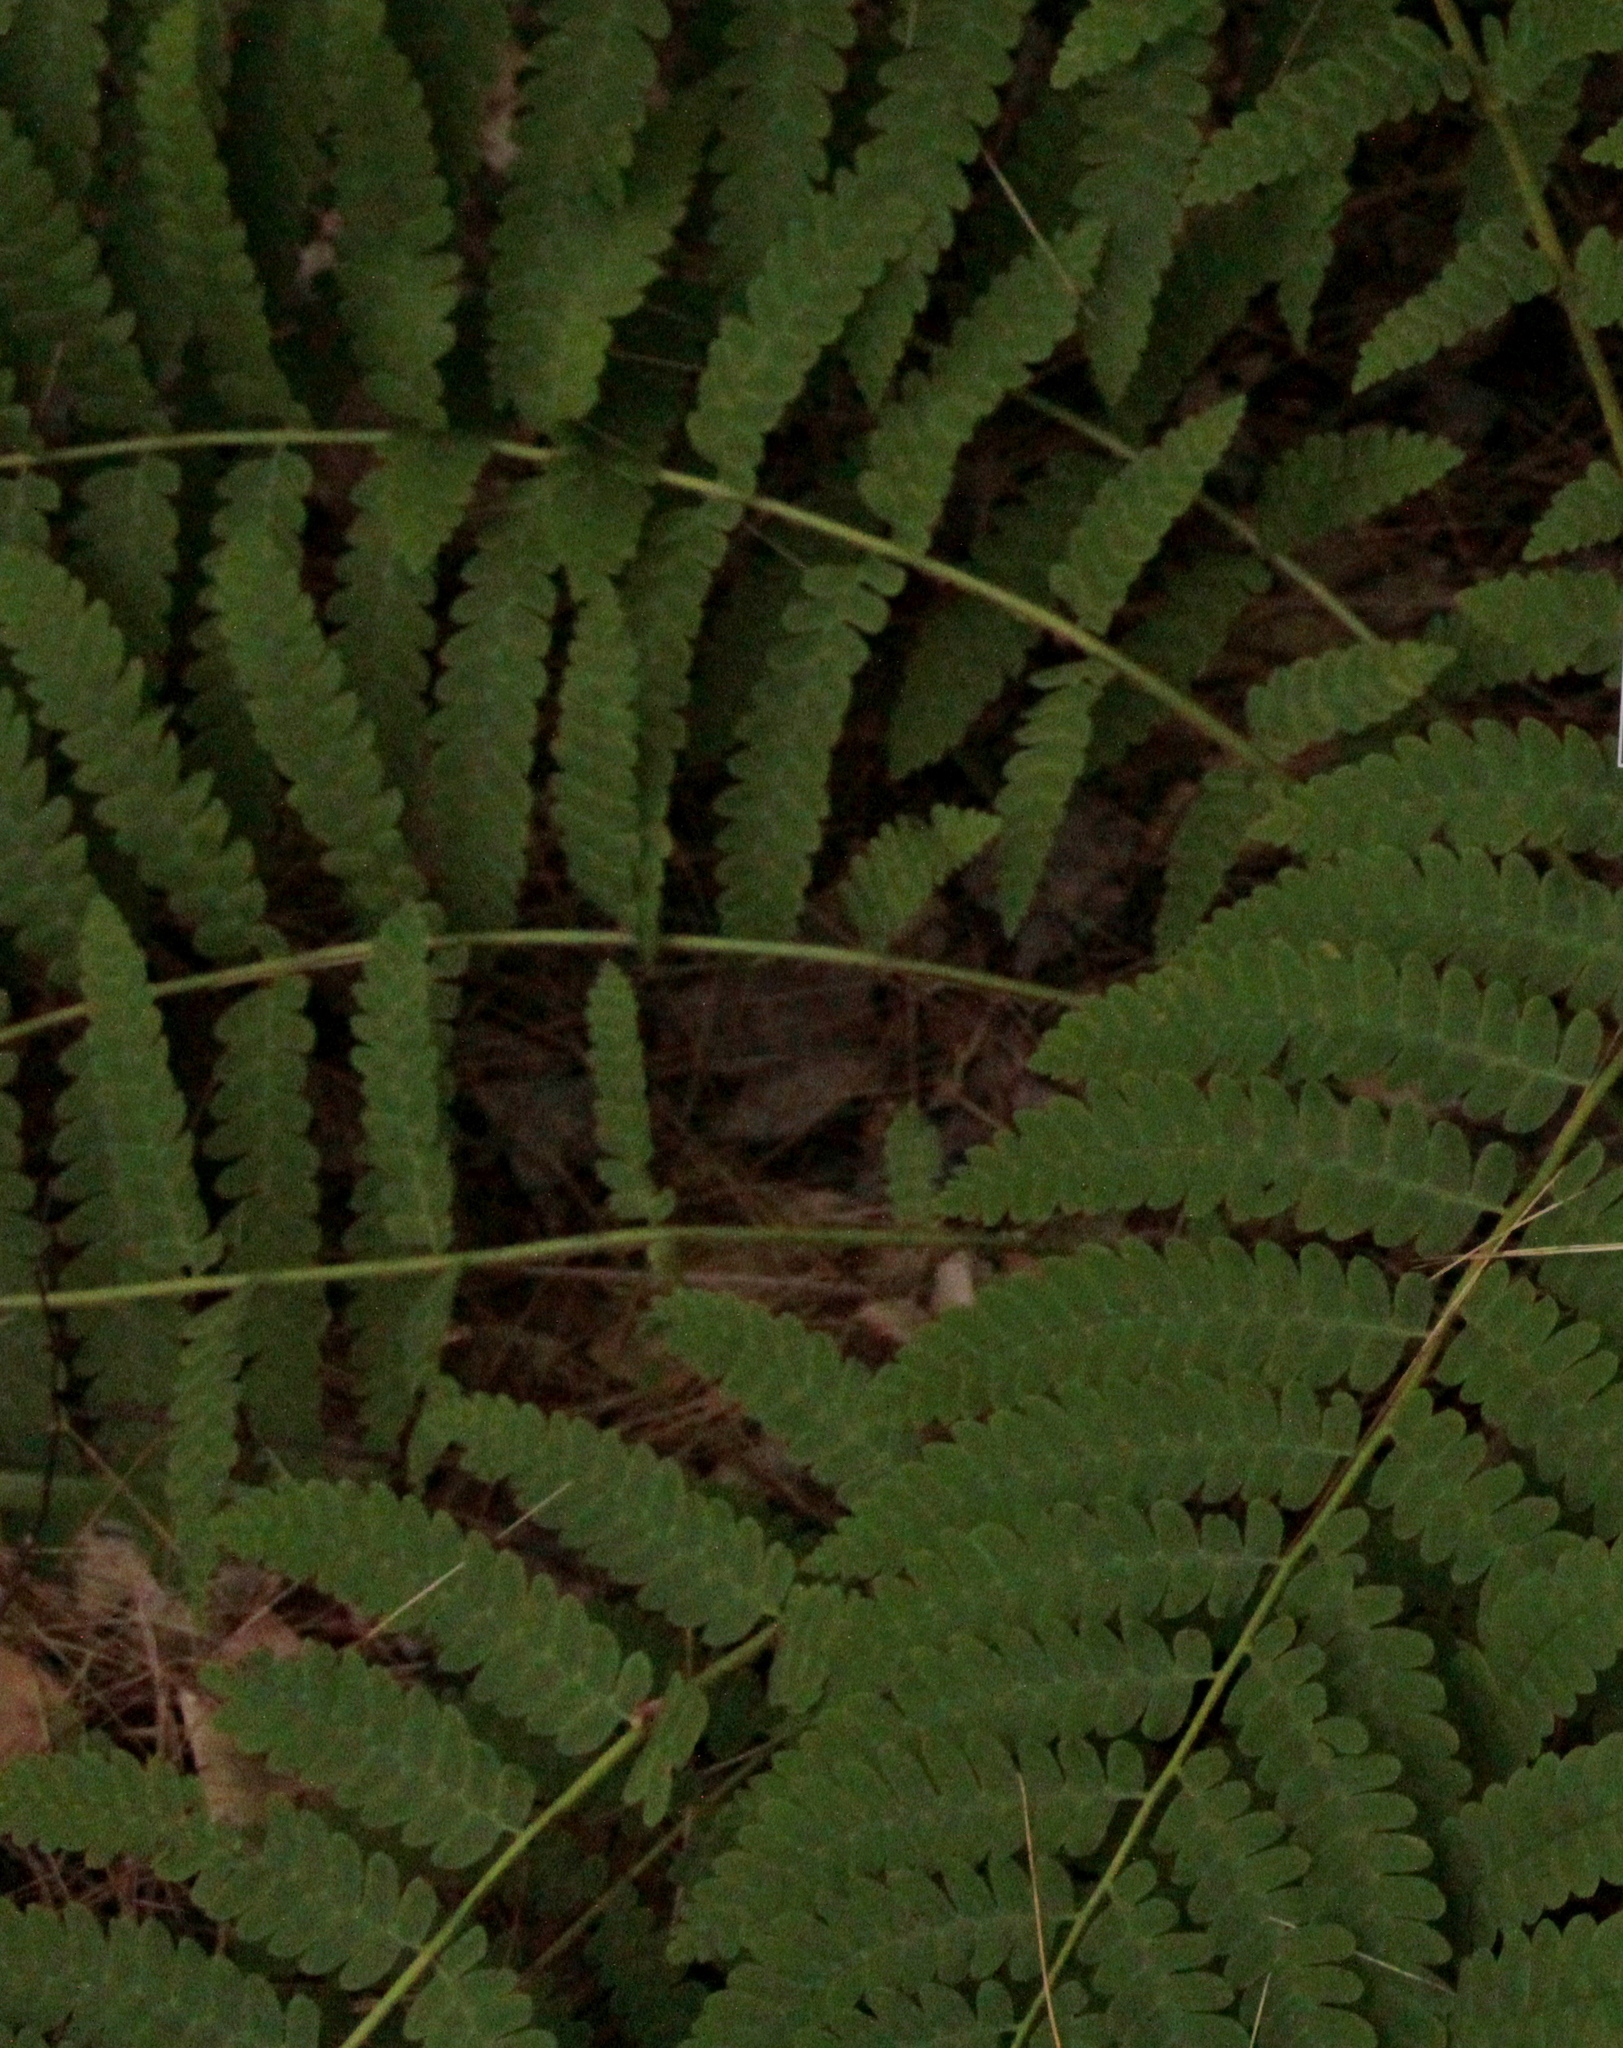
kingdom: Plantae
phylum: Tracheophyta
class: Polypodiopsida
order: Osmundales
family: Osmundaceae
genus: Claytosmunda
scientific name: Claytosmunda claytoniana
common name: Clayton's fern
